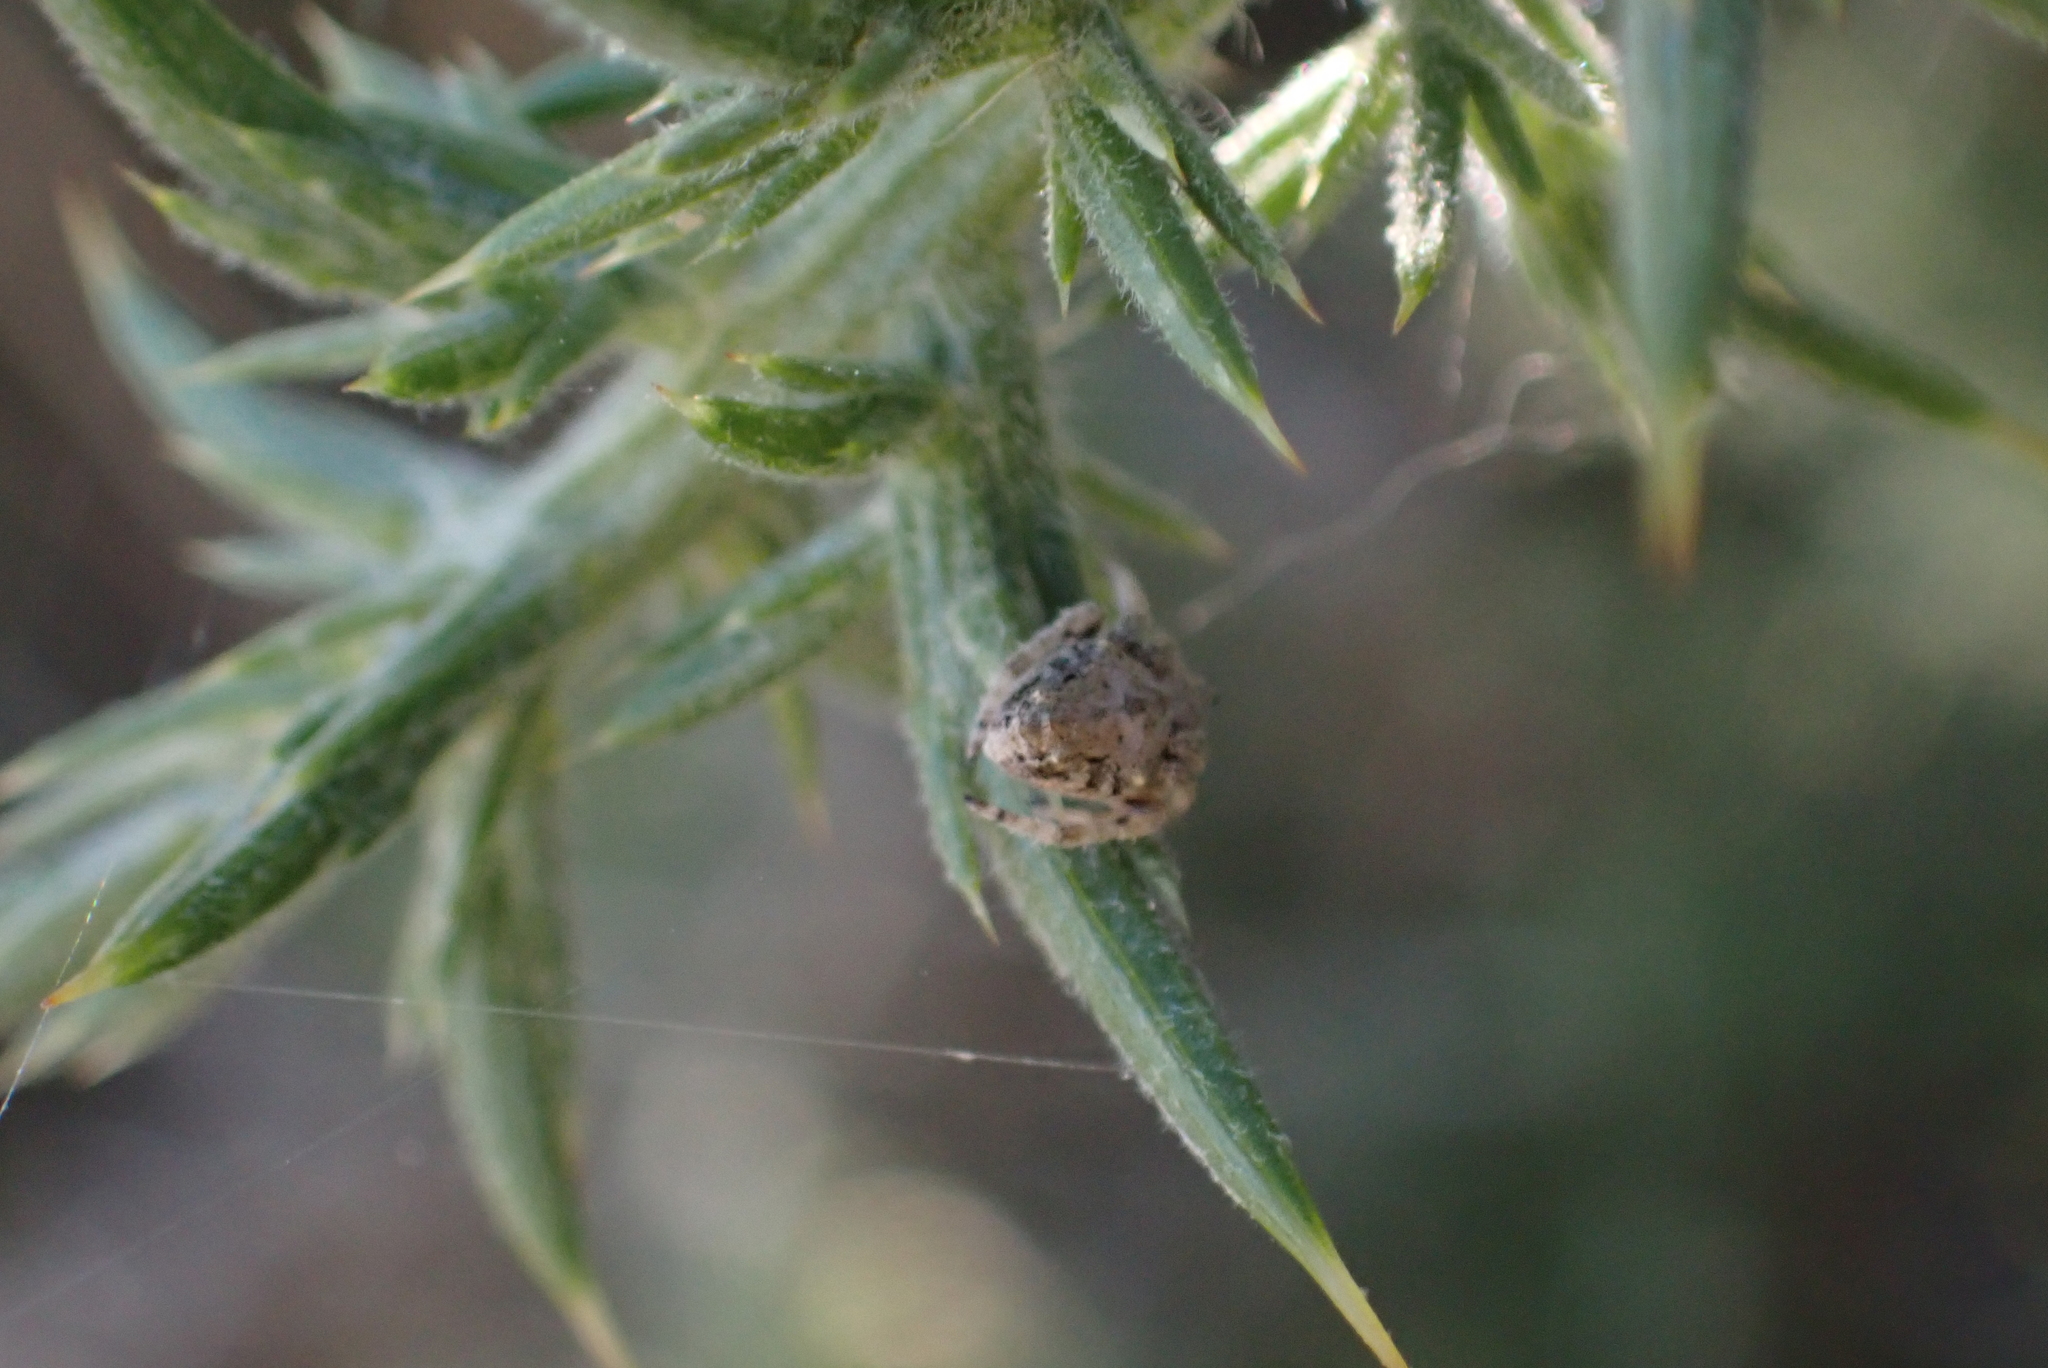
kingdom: Animalia
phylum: Arthropoda
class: Arachnida
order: Araneae
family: Araneidae
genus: Eriophora
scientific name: Eriophora pustulosa
